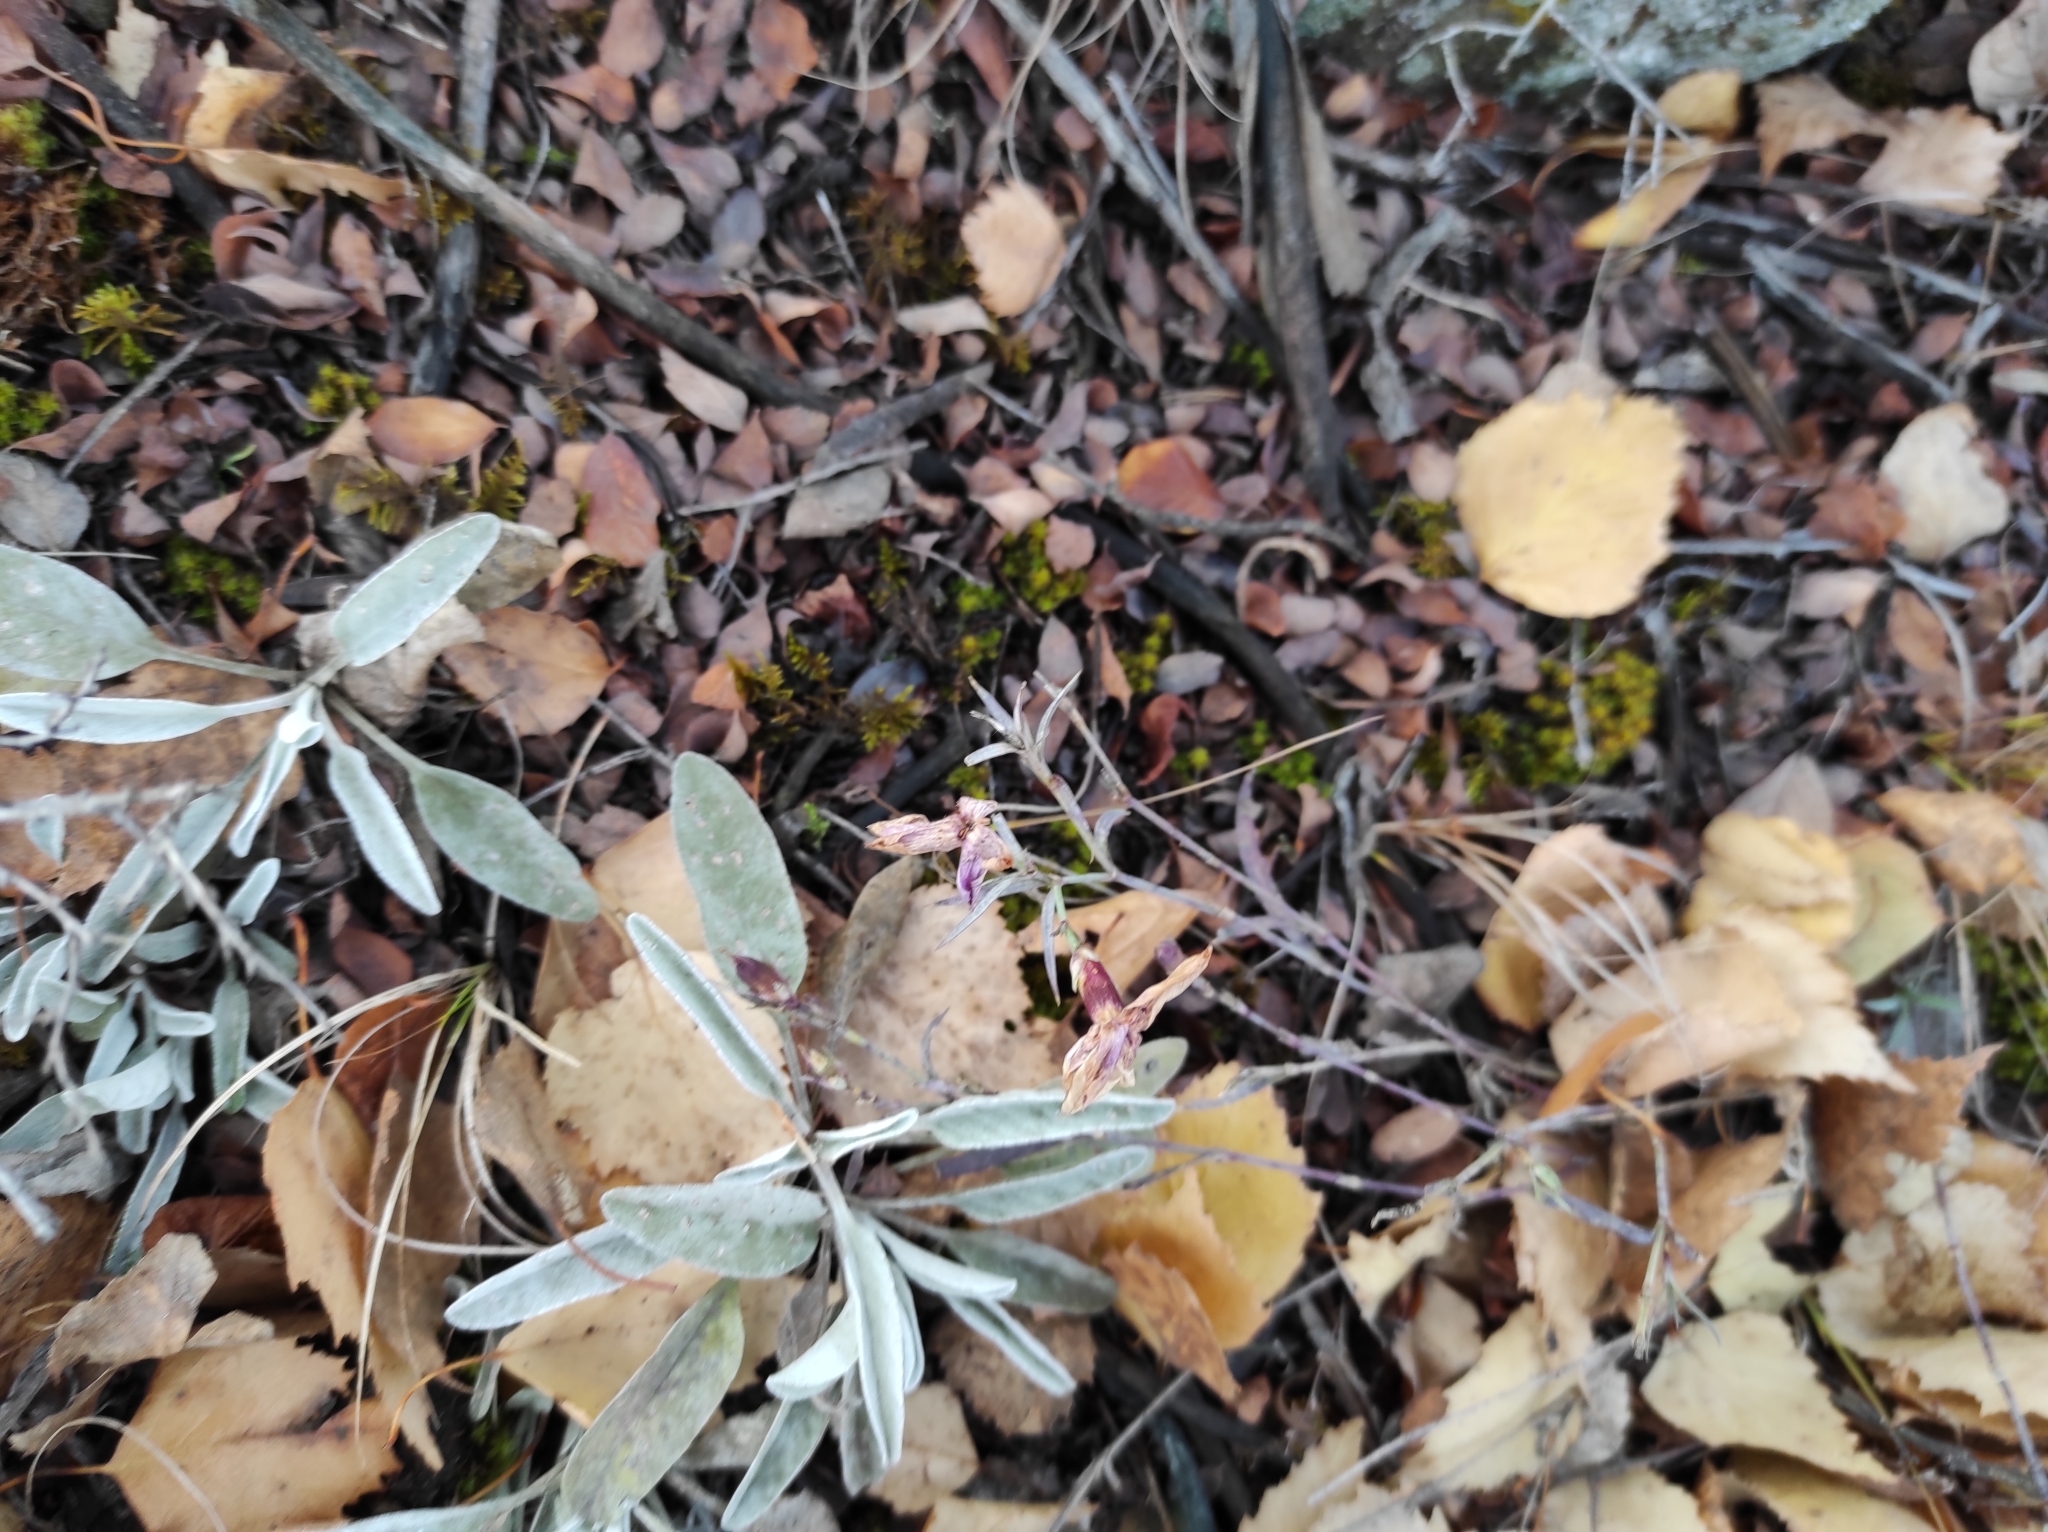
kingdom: Plantae
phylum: Tracheophyta
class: Magnoliopsida
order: Caryophyllales
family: Caryophyllaceae
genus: Dianthus
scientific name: Dianthus chinensis
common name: Rainbow pink
